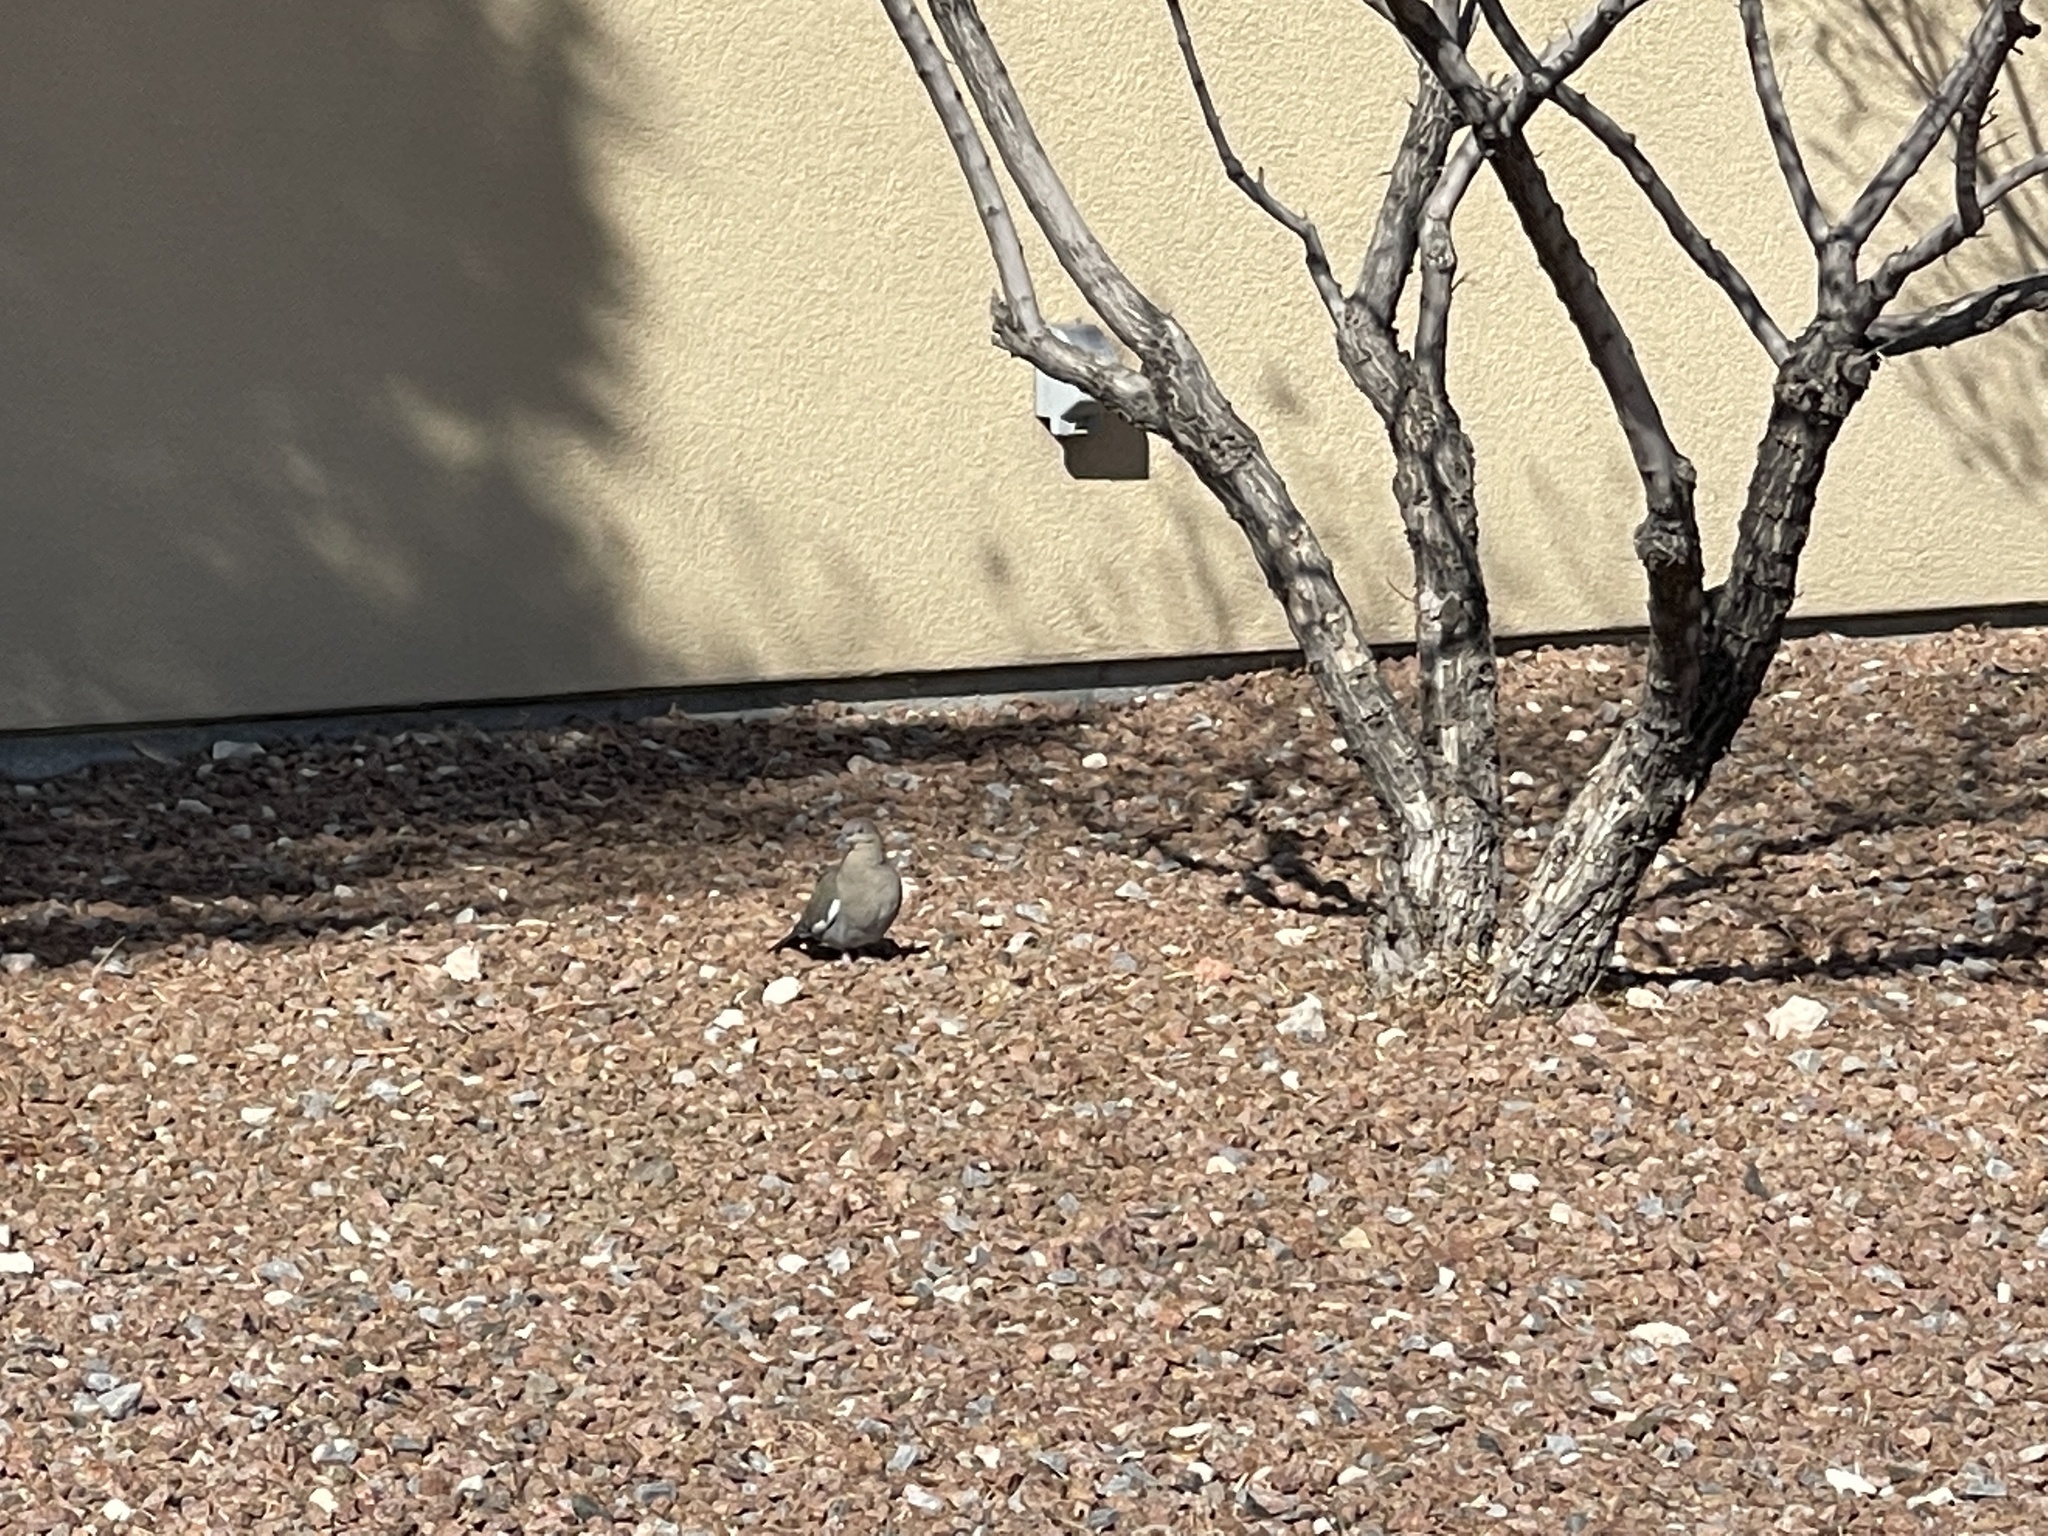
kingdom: Animalia
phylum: Chordata
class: Aves
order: Columbiformes
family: Columbidae
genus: Zenaida
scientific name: Zenaida asiatica
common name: White-winged dove
